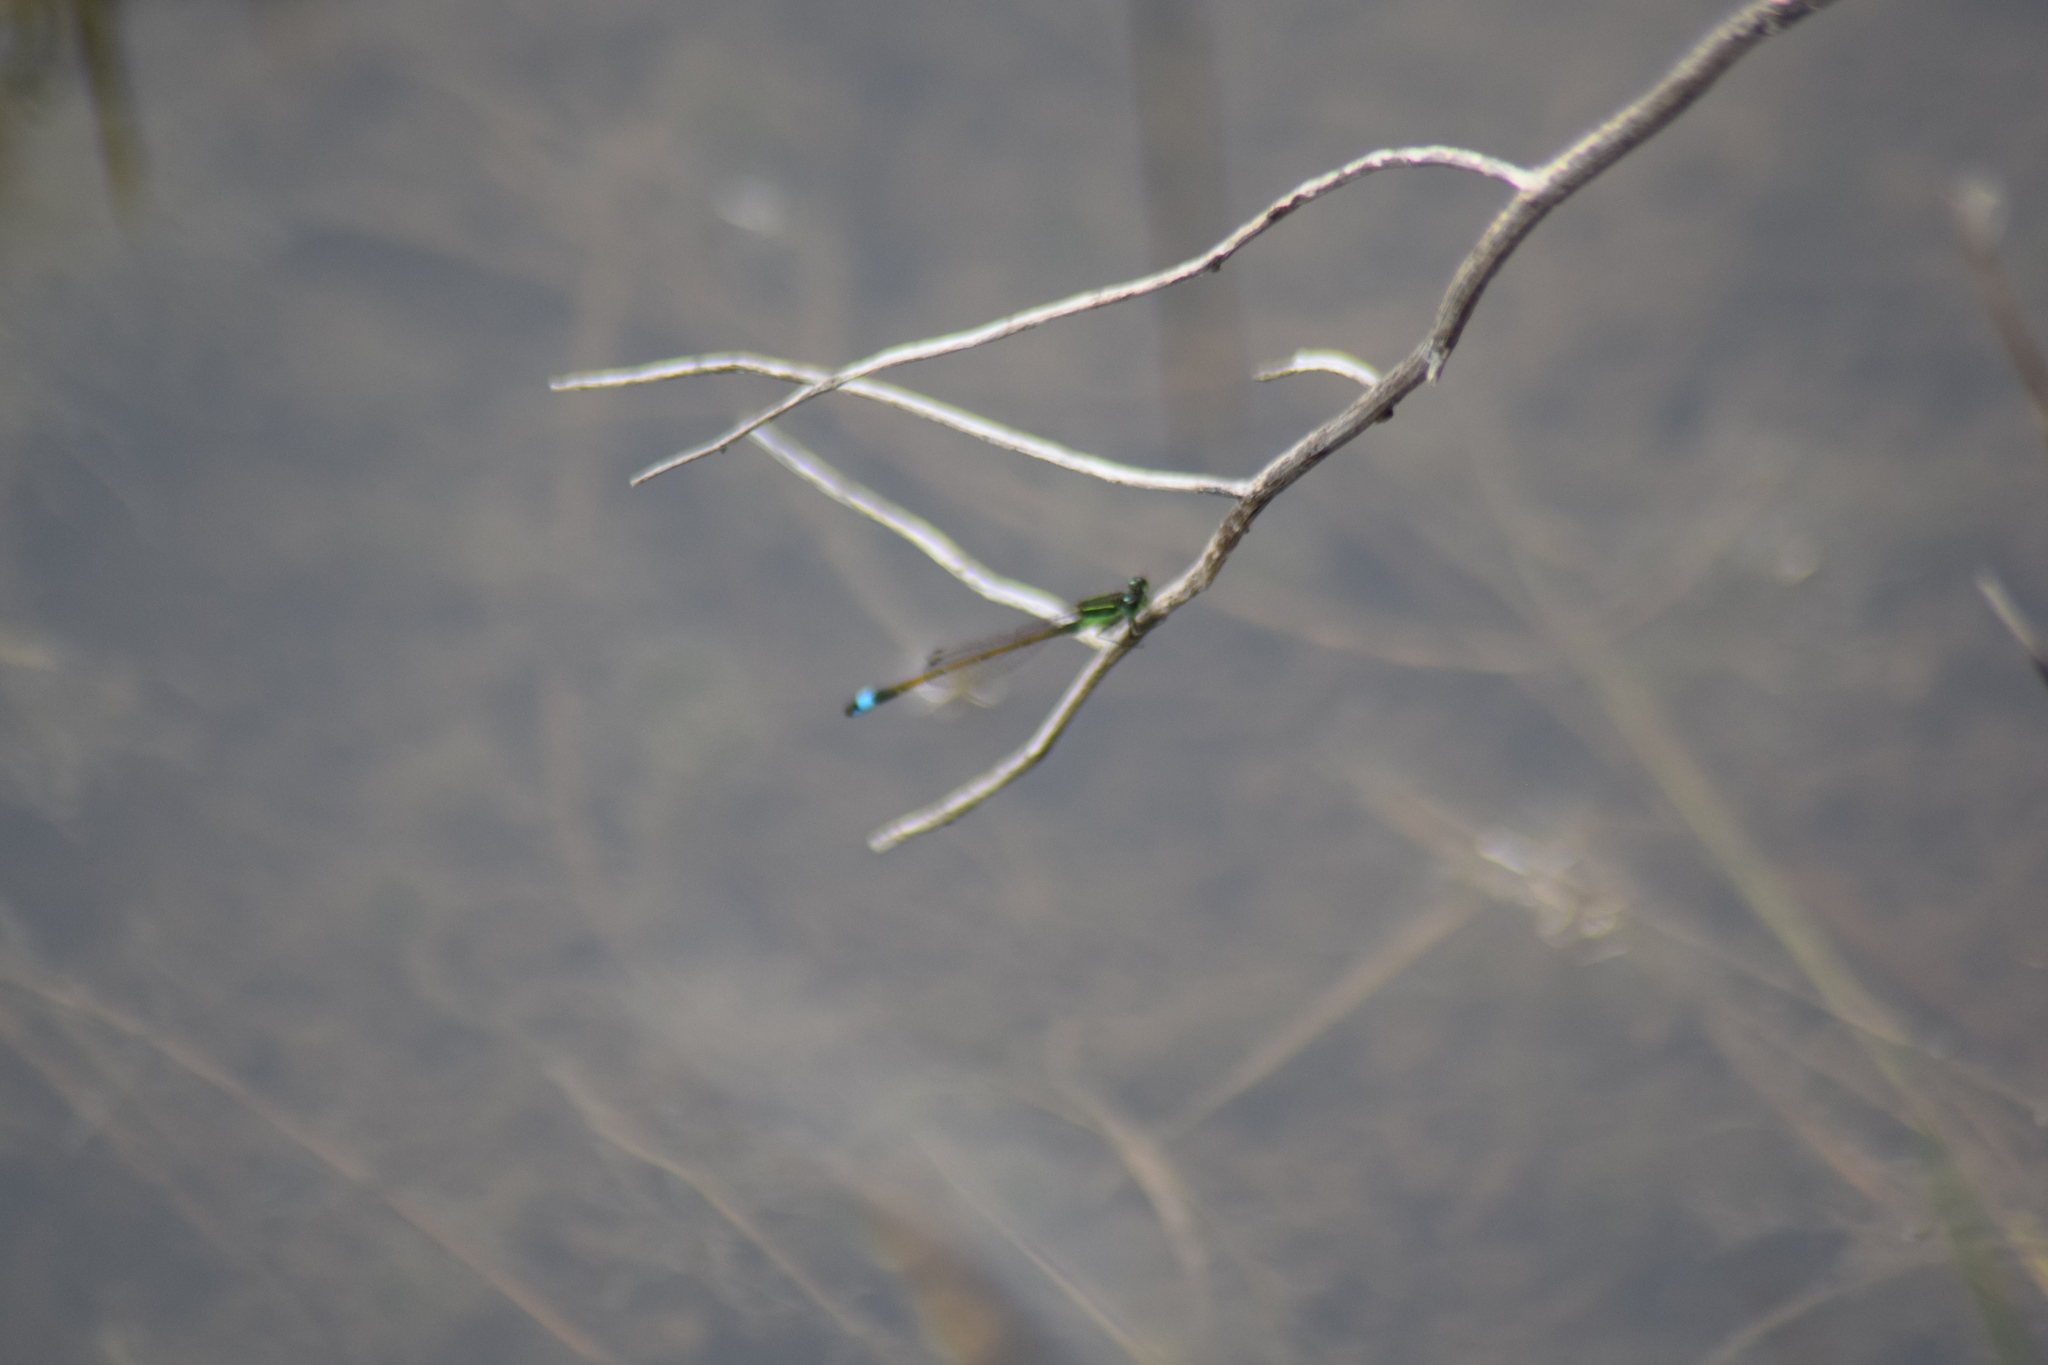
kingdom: Animalia
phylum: Arthropoda
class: Insecta
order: Odonata
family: Coenagrionidae
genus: Ischnura
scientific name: Ischnura ramburii
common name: Rambur's forktail
